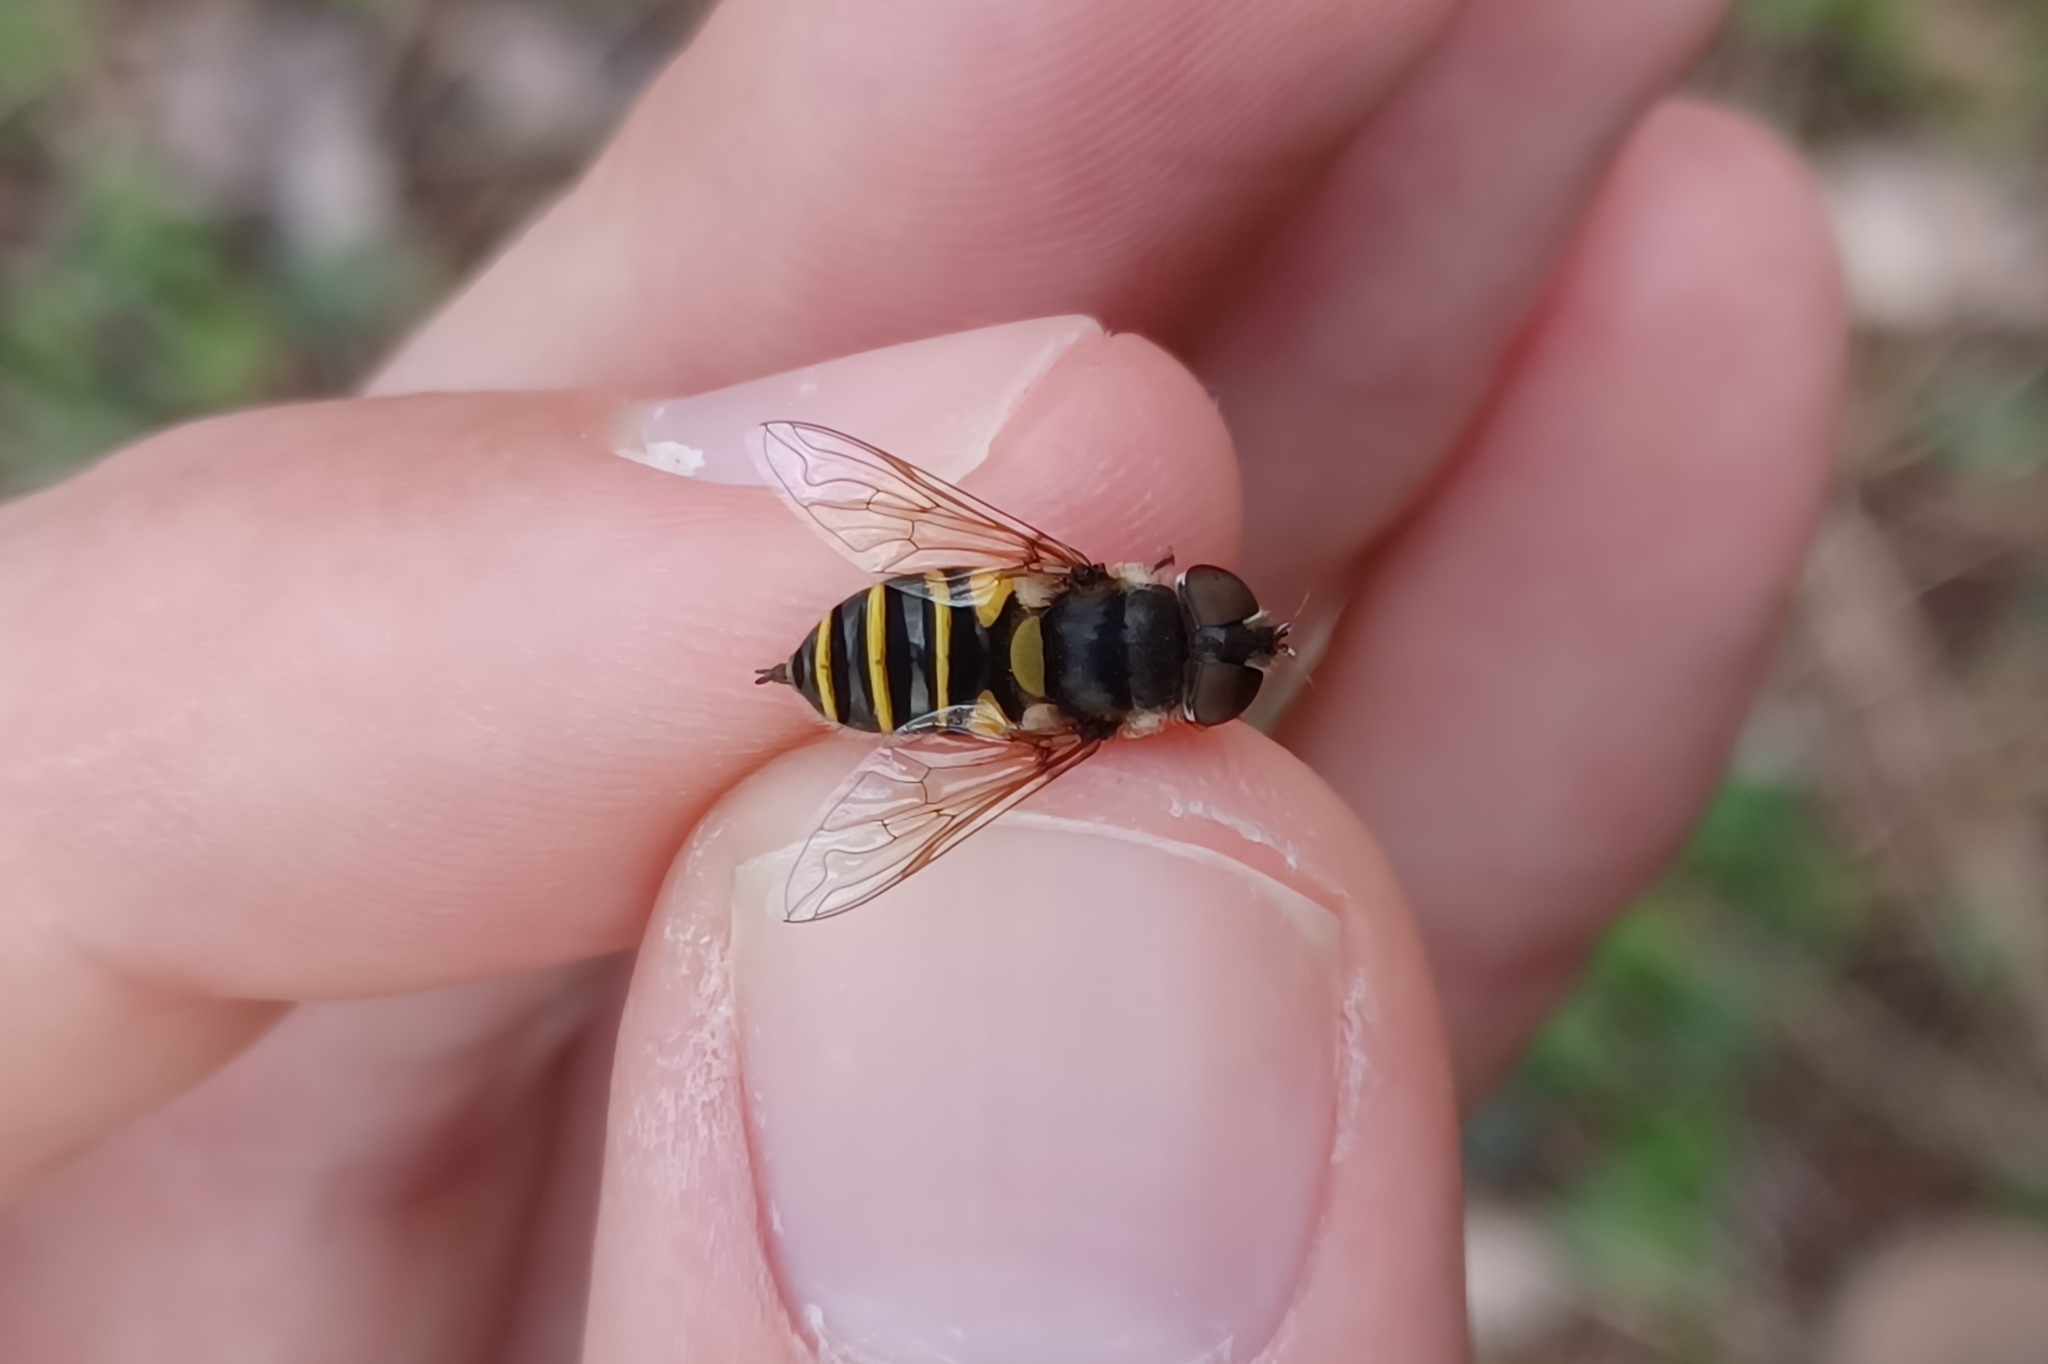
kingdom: Animalia
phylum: Arthropoda
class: Insecta
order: Diptera
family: Syrphidae
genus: Eristalis
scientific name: Eristalis transversa
